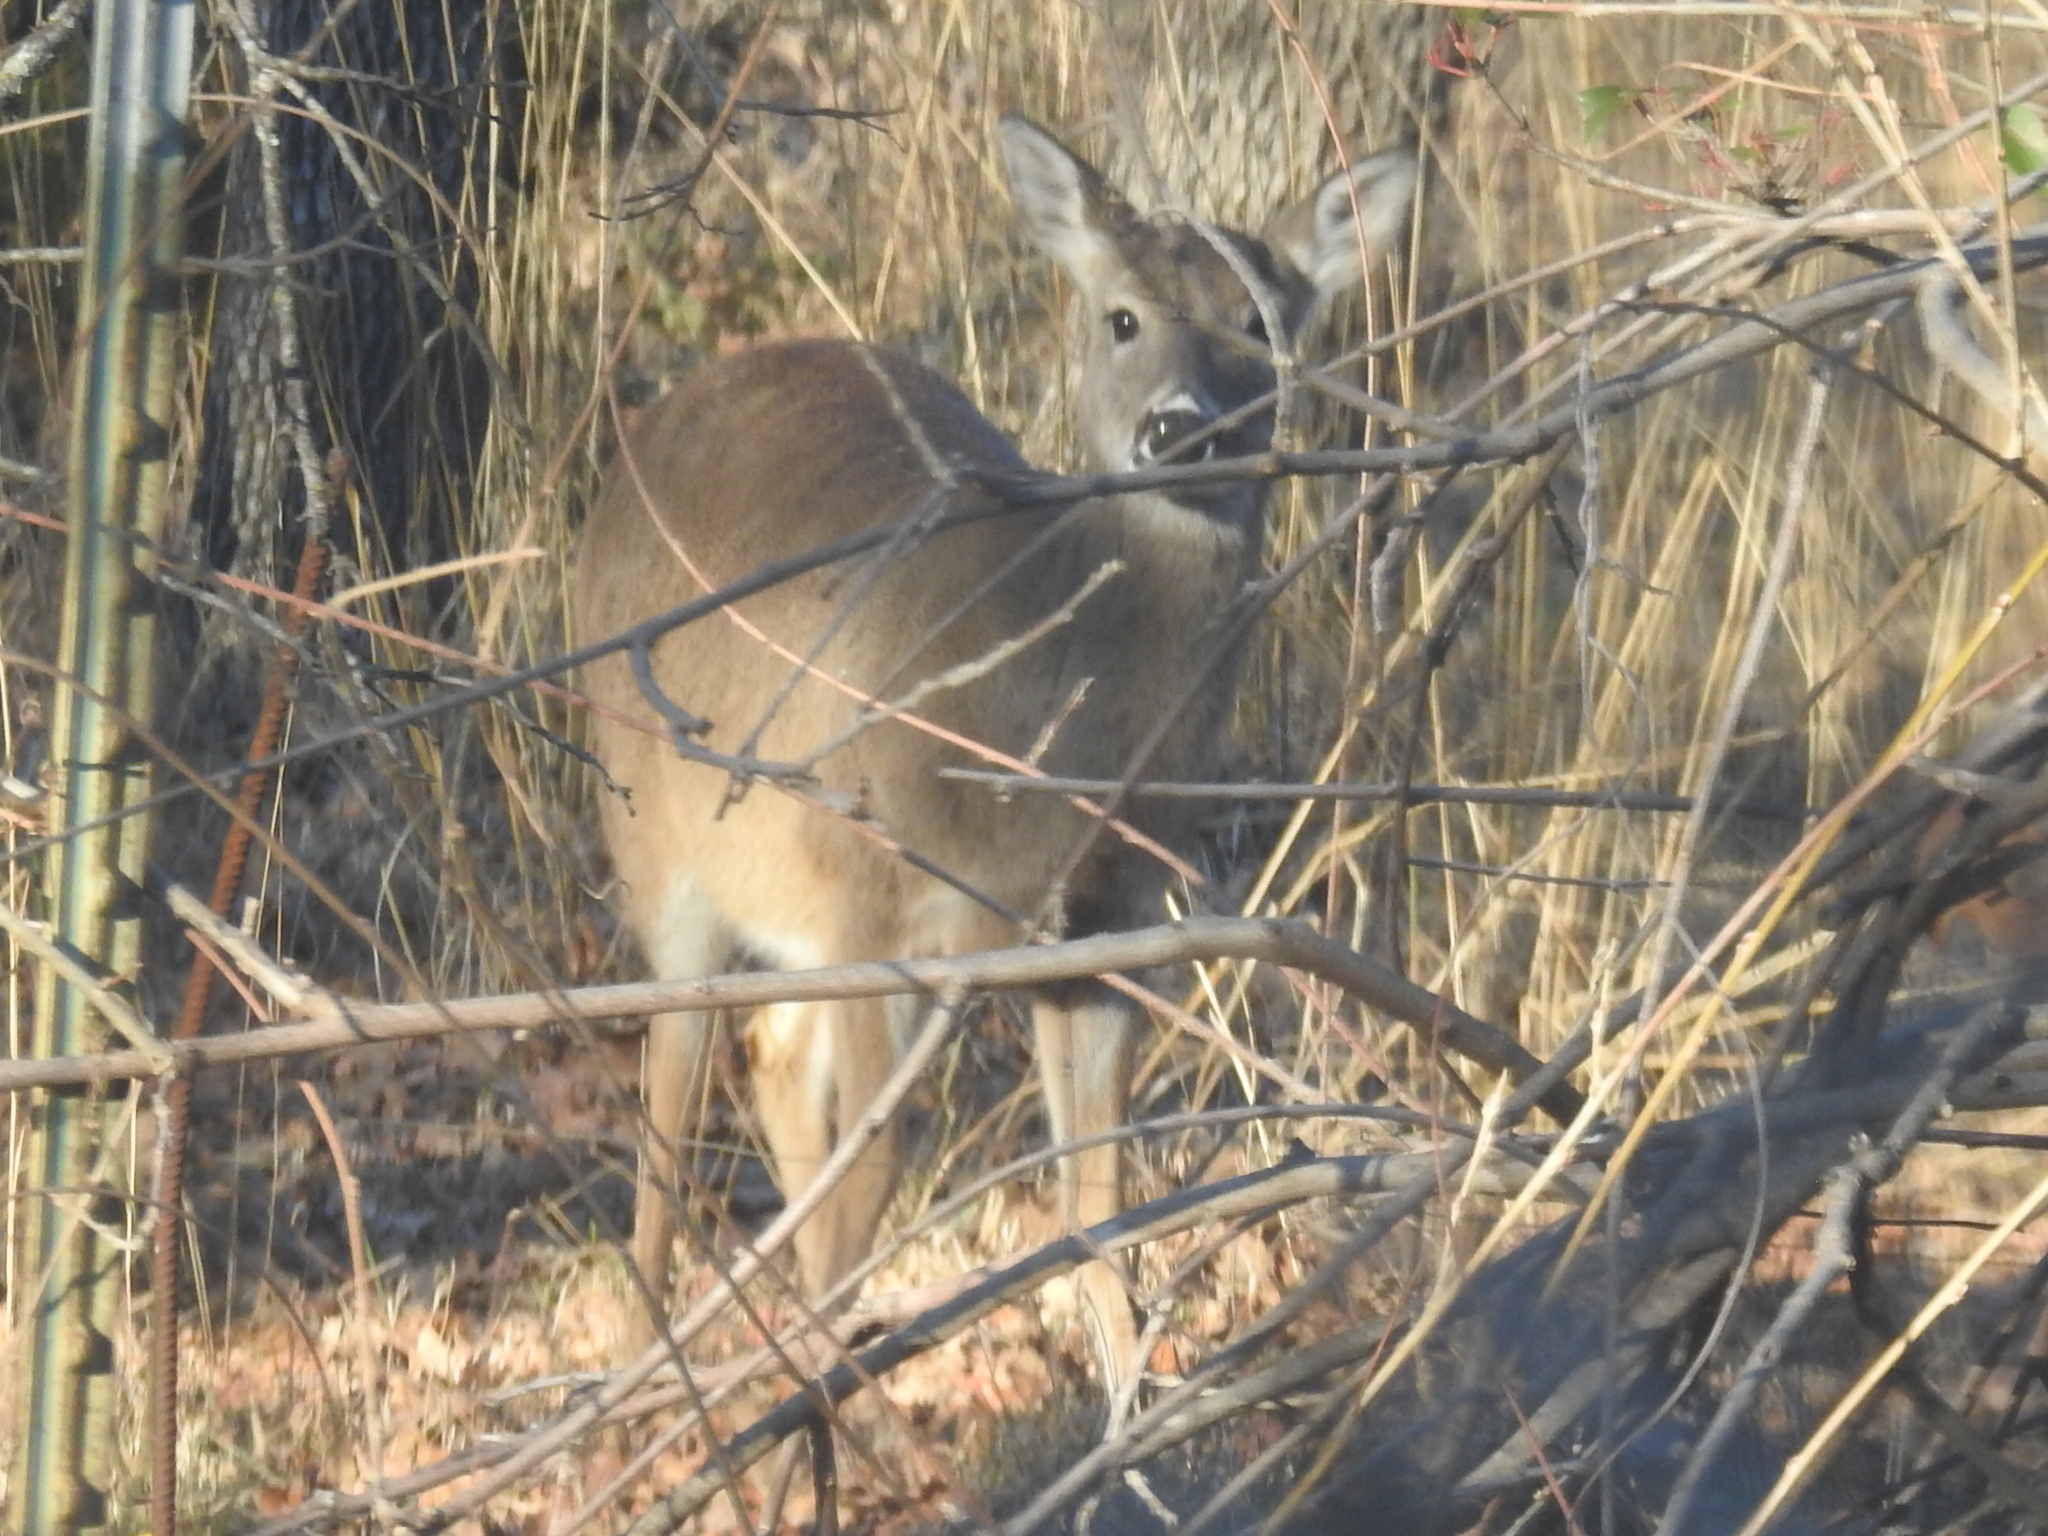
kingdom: Animalia
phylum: Chordata
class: Mammalia
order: Artiodactyla
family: Cervidae
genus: Odocoileus
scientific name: Odocoileus virginianus
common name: White-tailed deer
